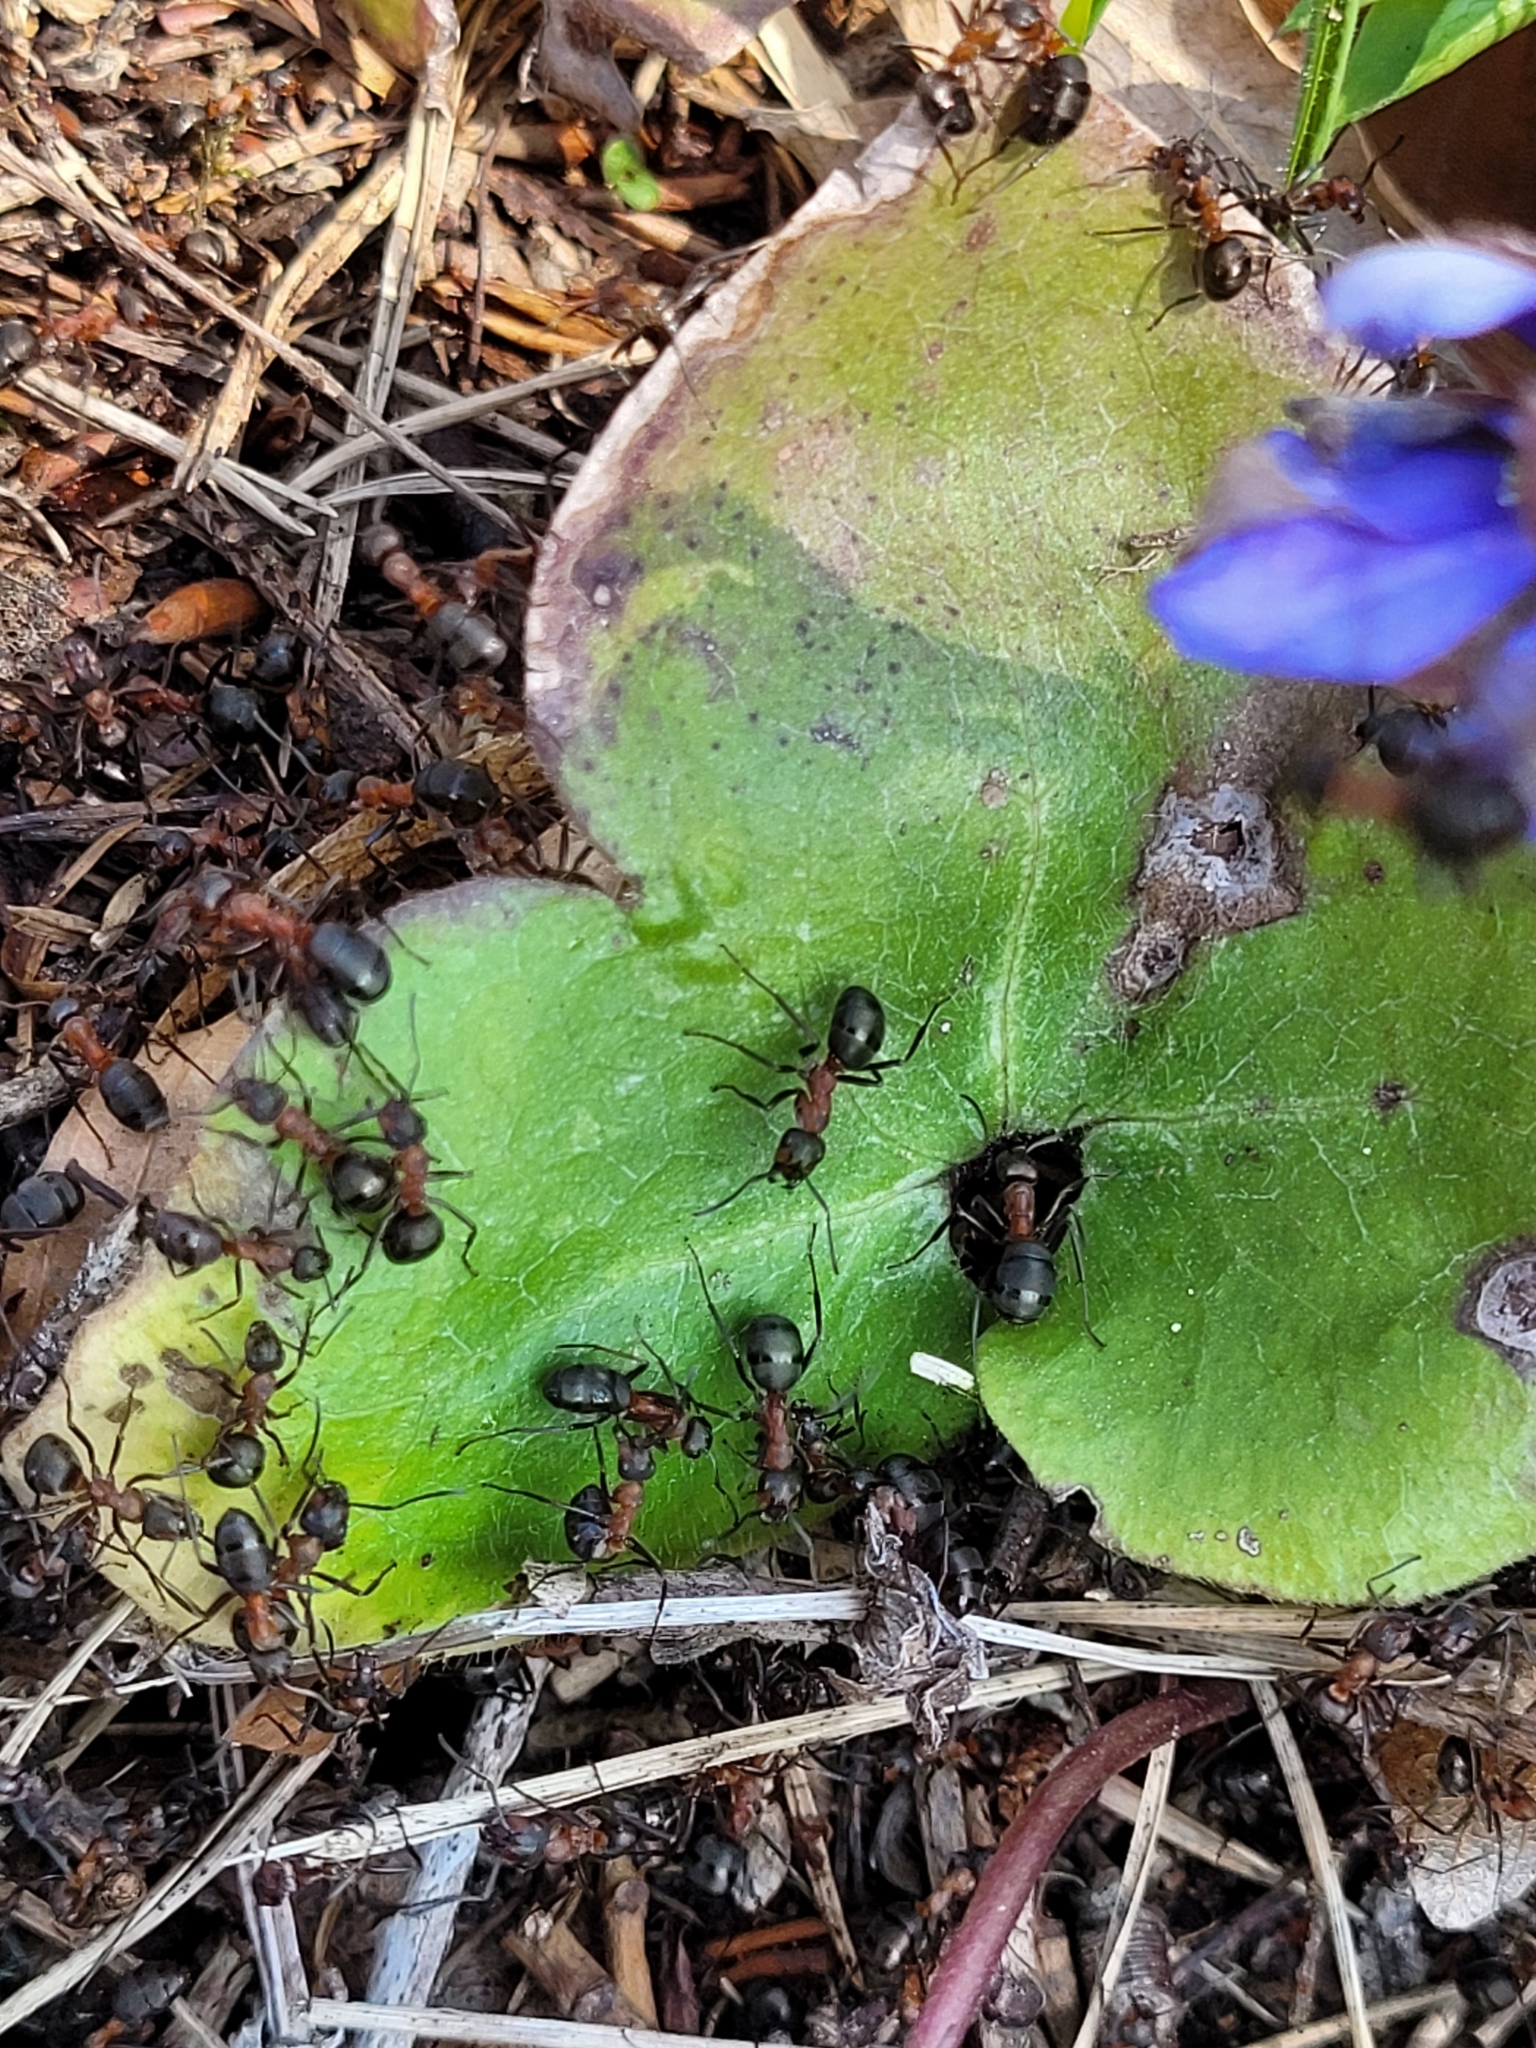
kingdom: Animalia
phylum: Arthropoda
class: Insecta
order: Hymenoptera
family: Formicidae
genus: Formica
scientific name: Formica
